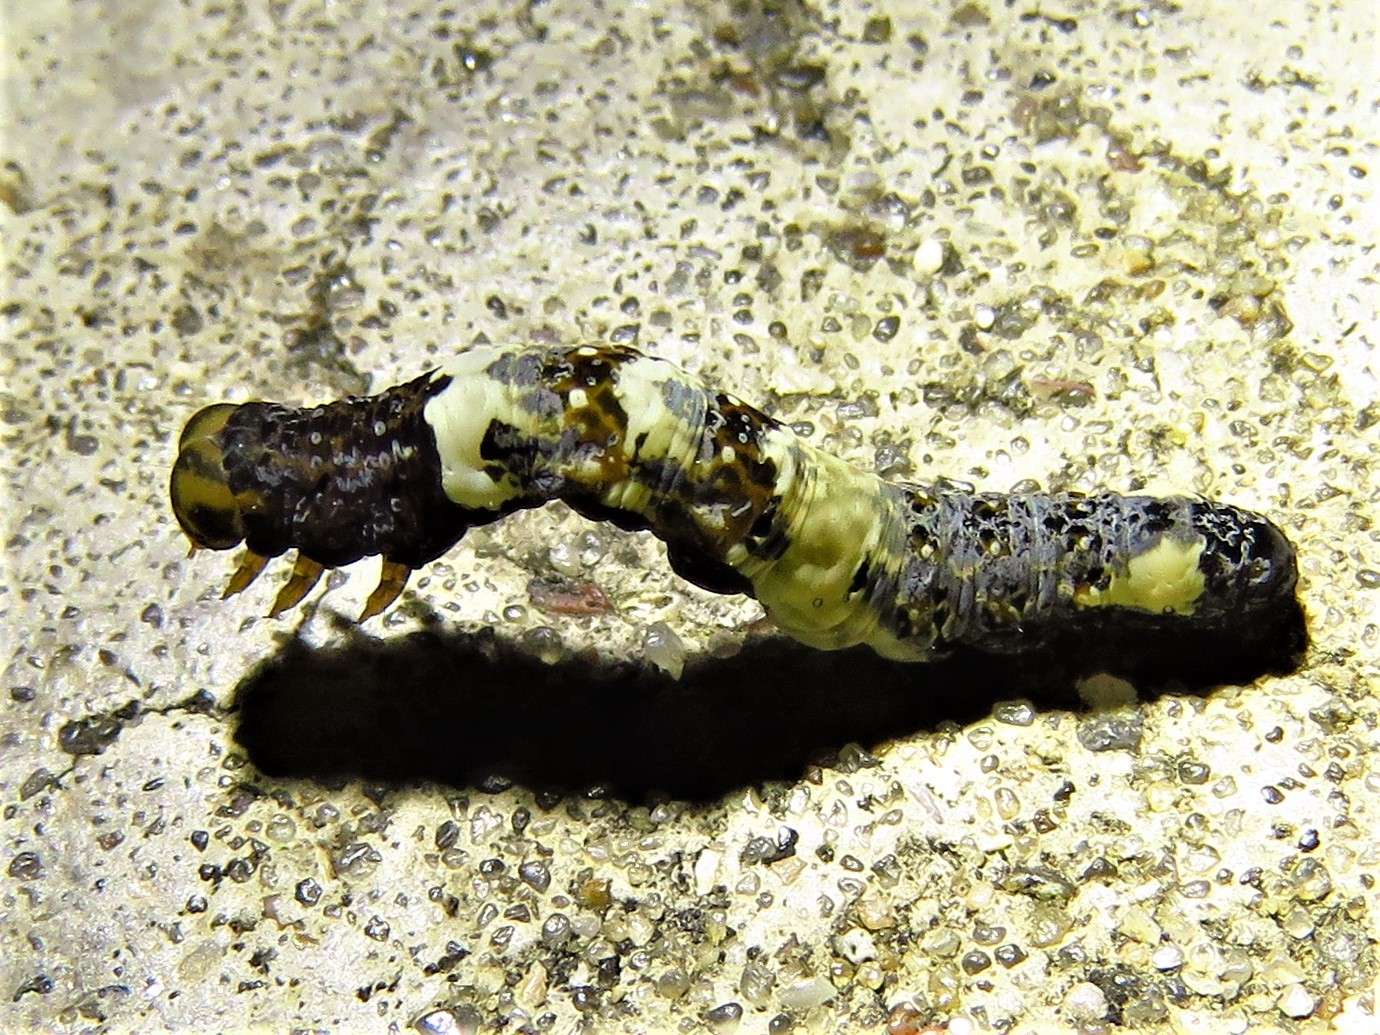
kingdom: Animalia
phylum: Arthropoda
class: Insecta
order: Lepidoptera
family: Erebidae
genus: Plusiodonta
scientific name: Plusiodonta compressipalpis
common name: Moonseed moth
